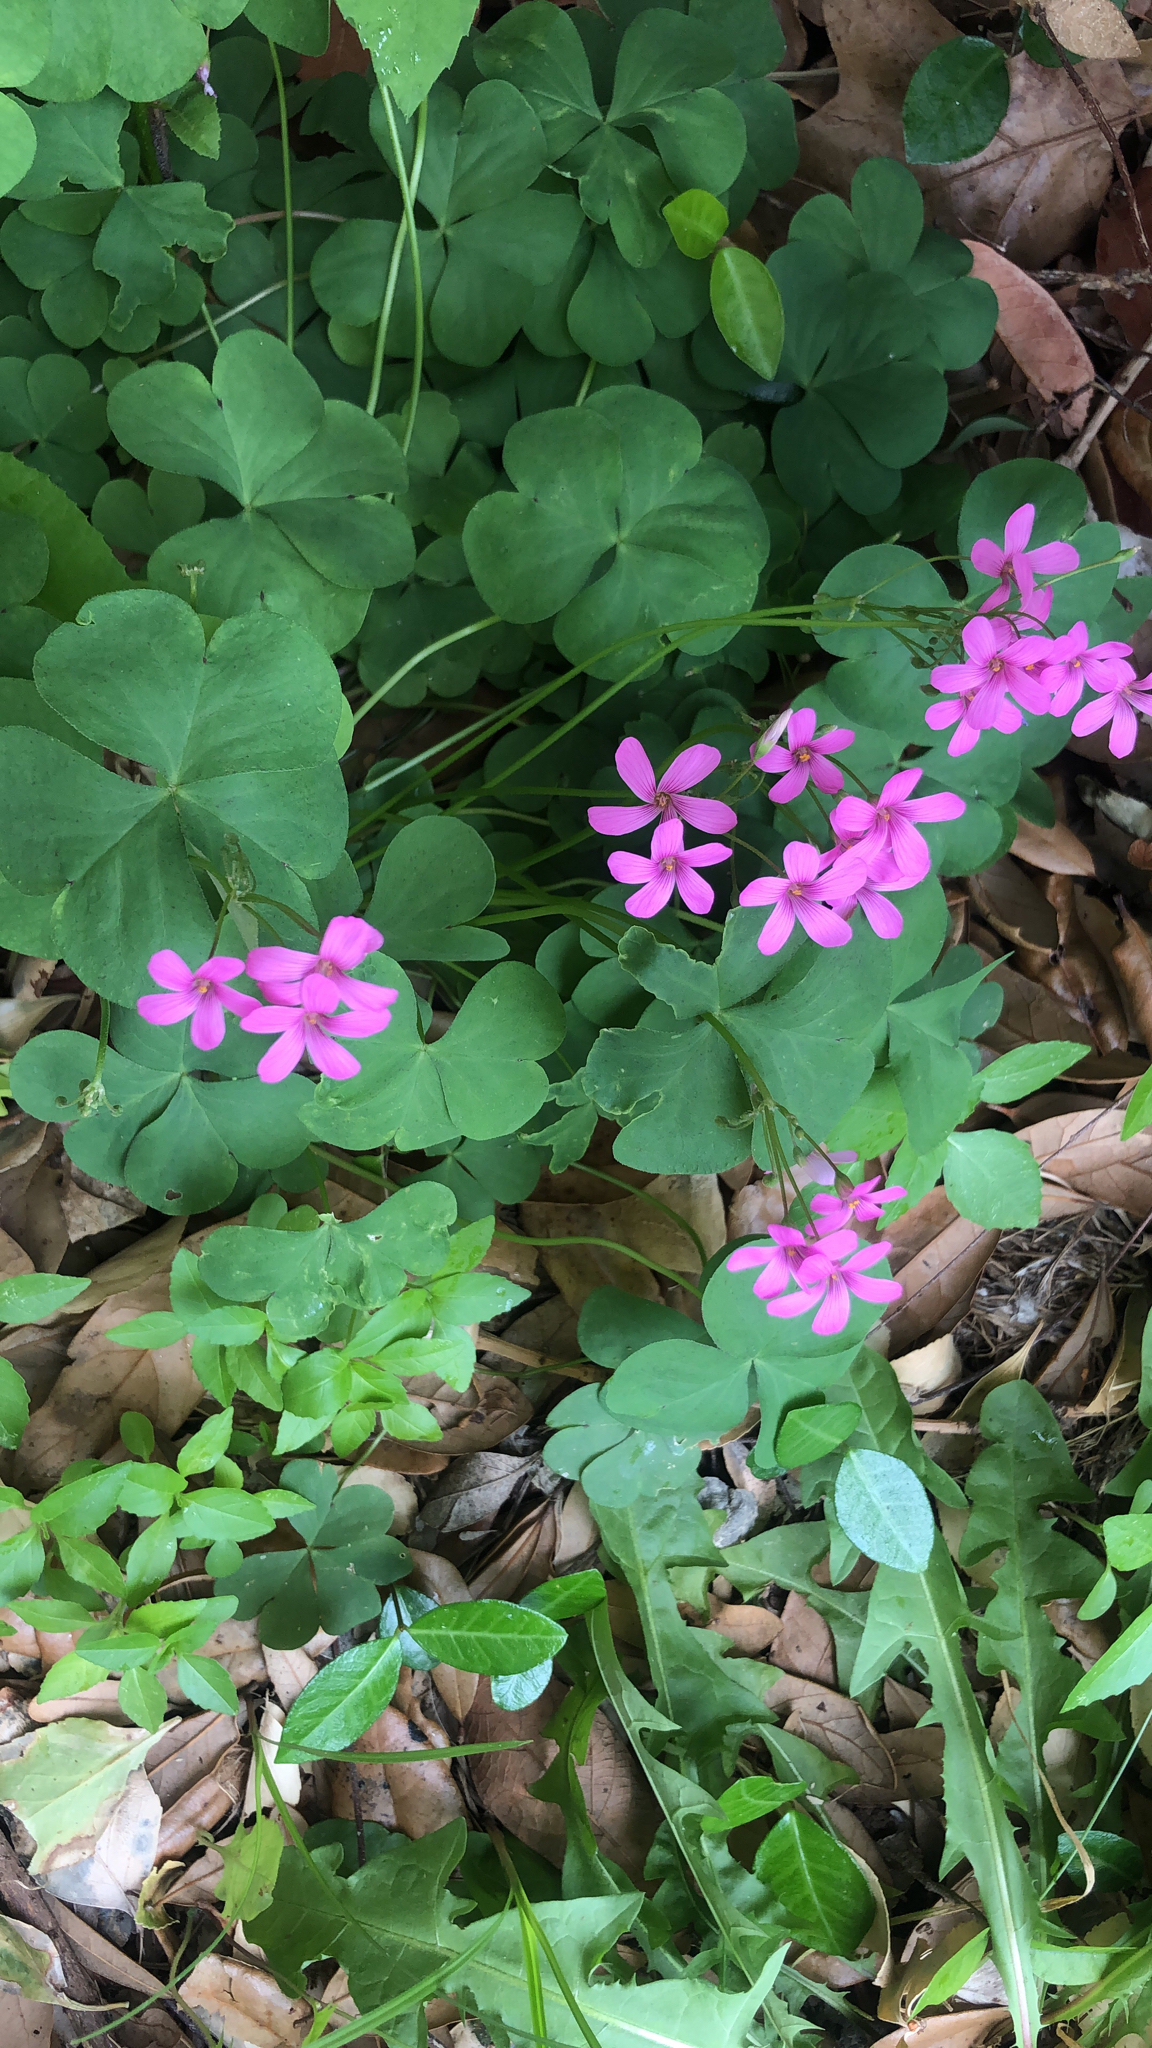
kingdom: Plantae
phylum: Tracheophyta
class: Magnoliopsida
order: Oxalidales
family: Oxalidaceae
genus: Oxalis
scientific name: Oxalis articulata
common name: Pink-sorrel
